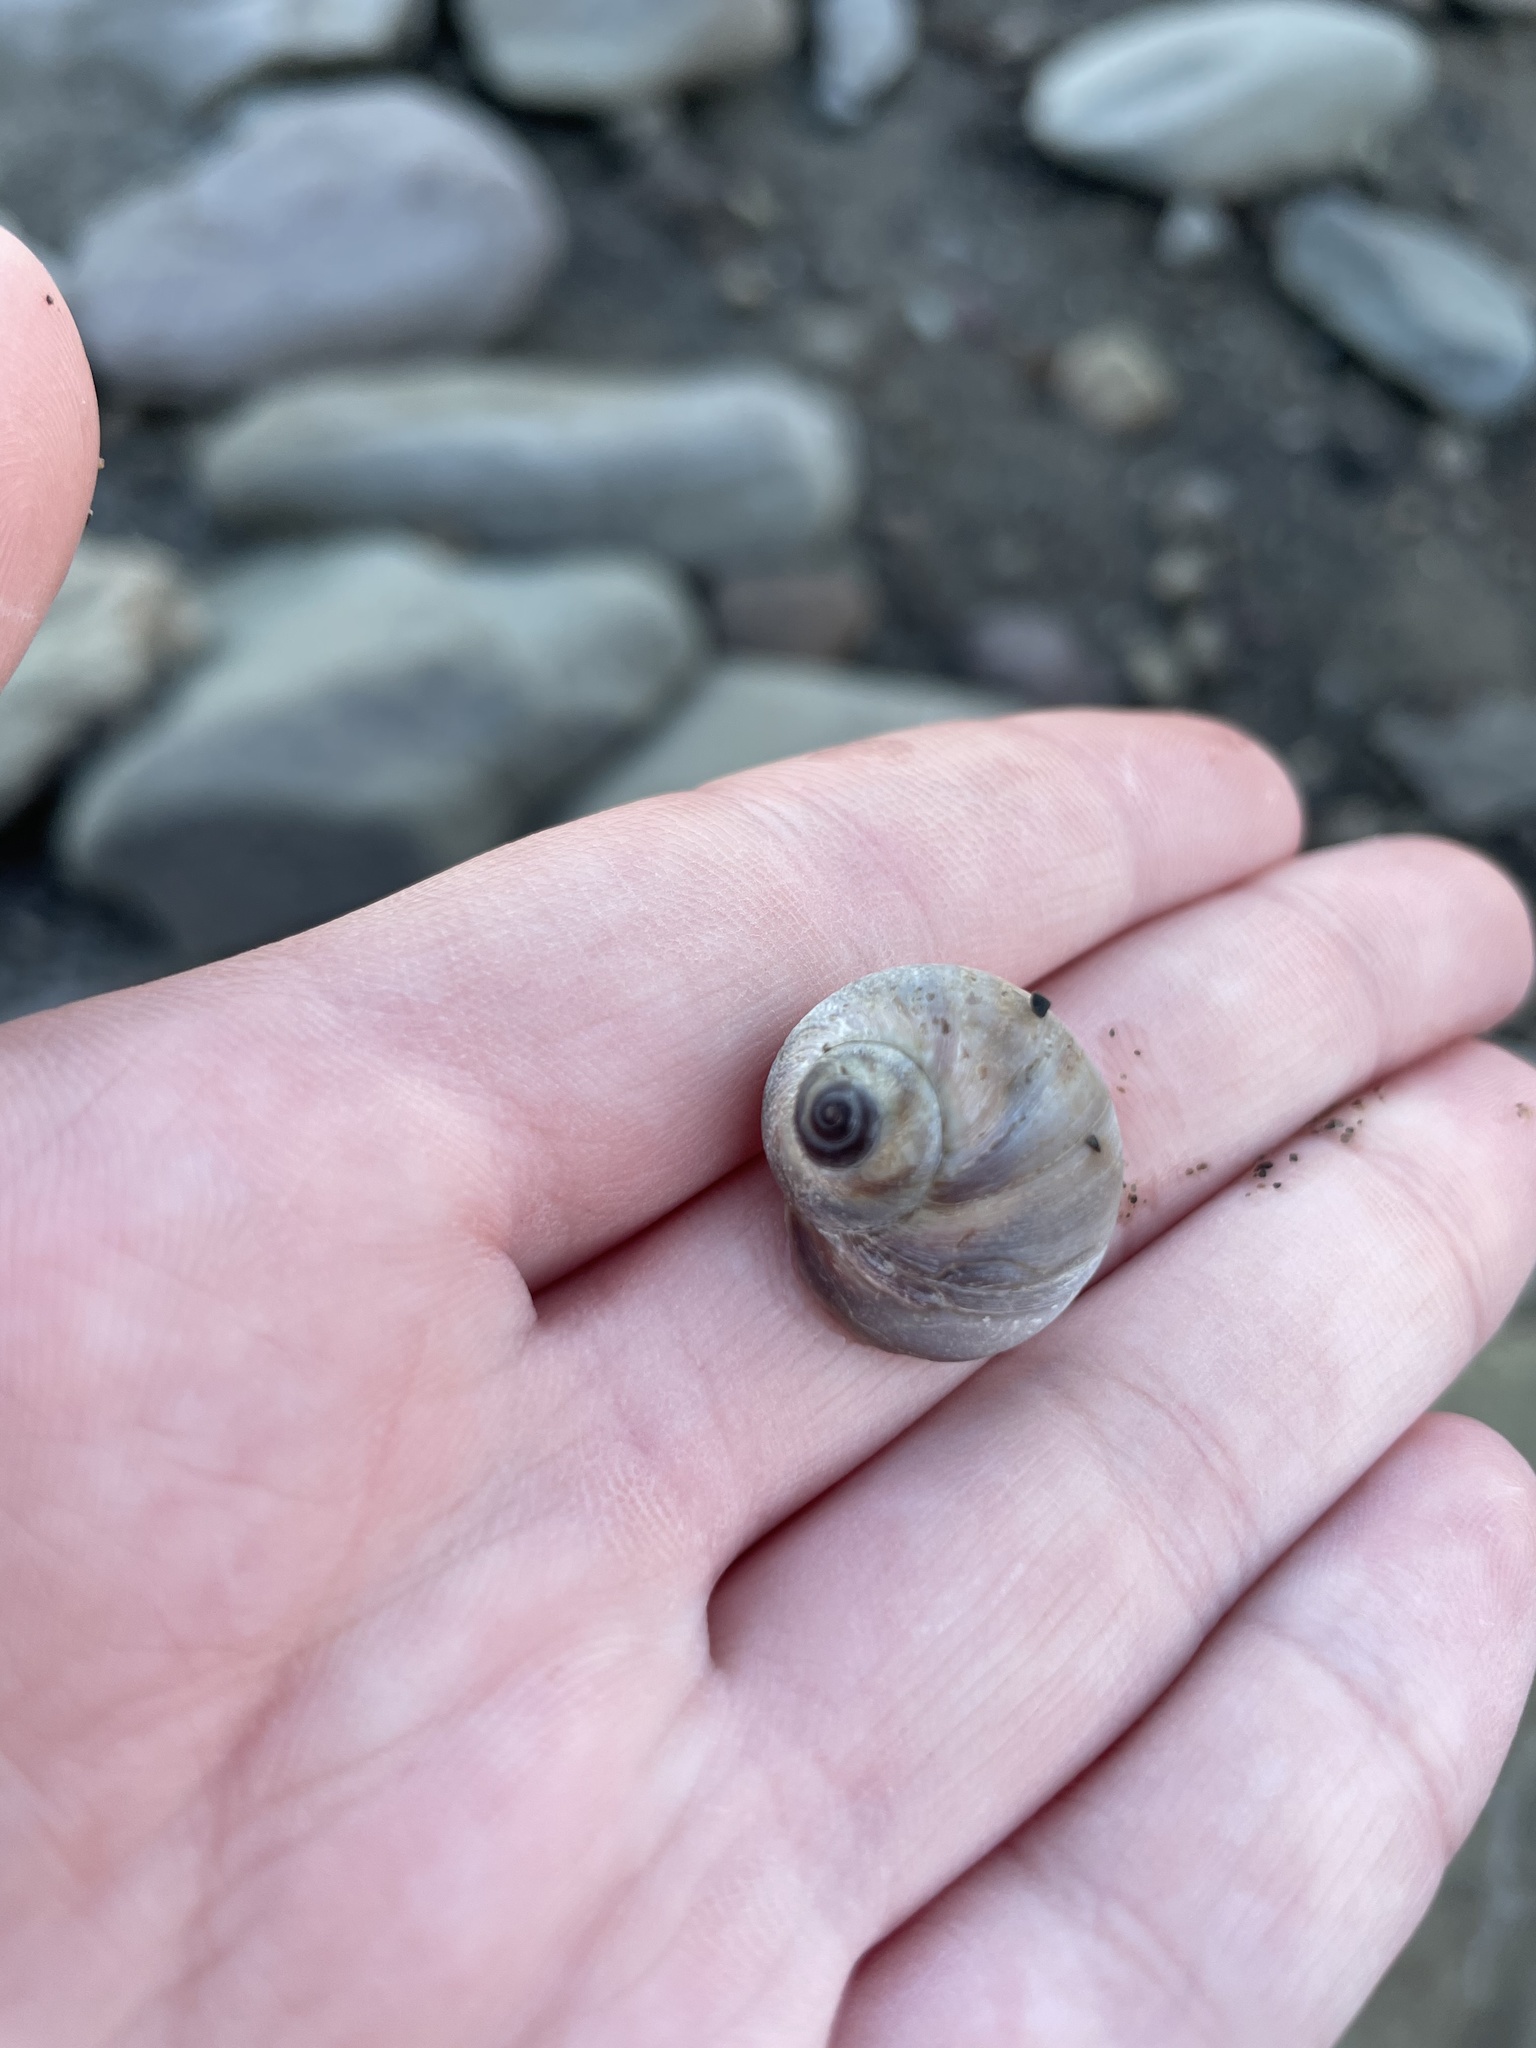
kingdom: Animalia
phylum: Mollusca
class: Gastropoda
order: Littorinimorpha
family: Naticidae
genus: Euspira
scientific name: Euspira heros
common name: Common northern moonsnail
